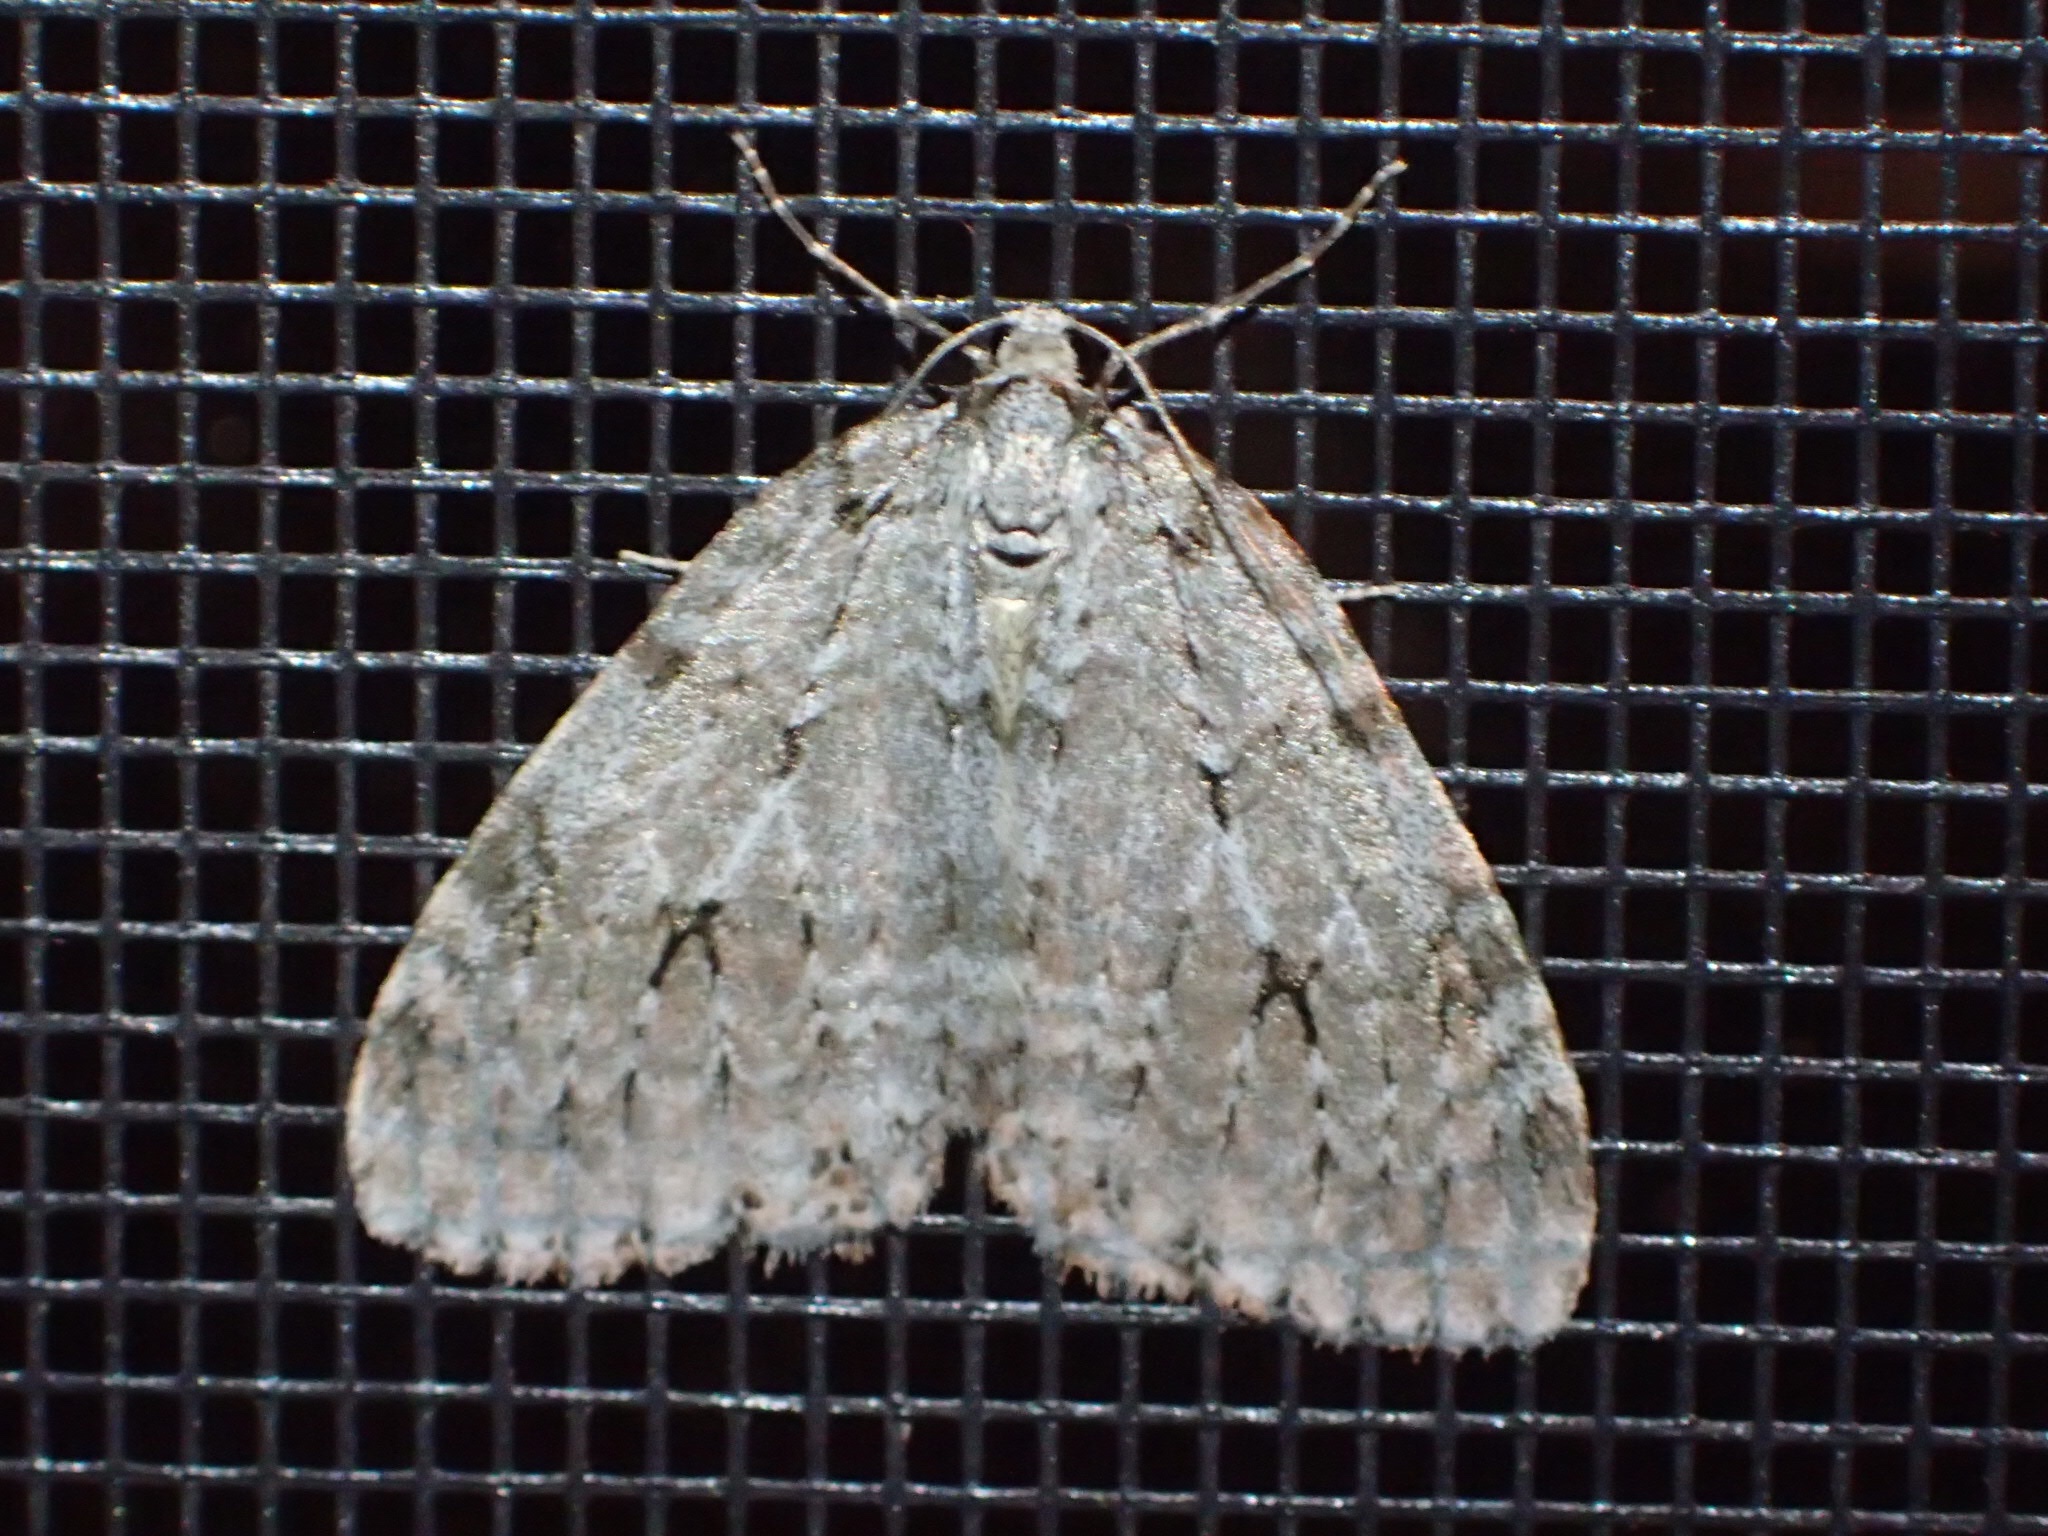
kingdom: Animalia
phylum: Arthropoda
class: Insecta
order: Lepidoptera
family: Geometridae
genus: Epirrita
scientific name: Epirrita autumnata
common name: Autumnal moth
